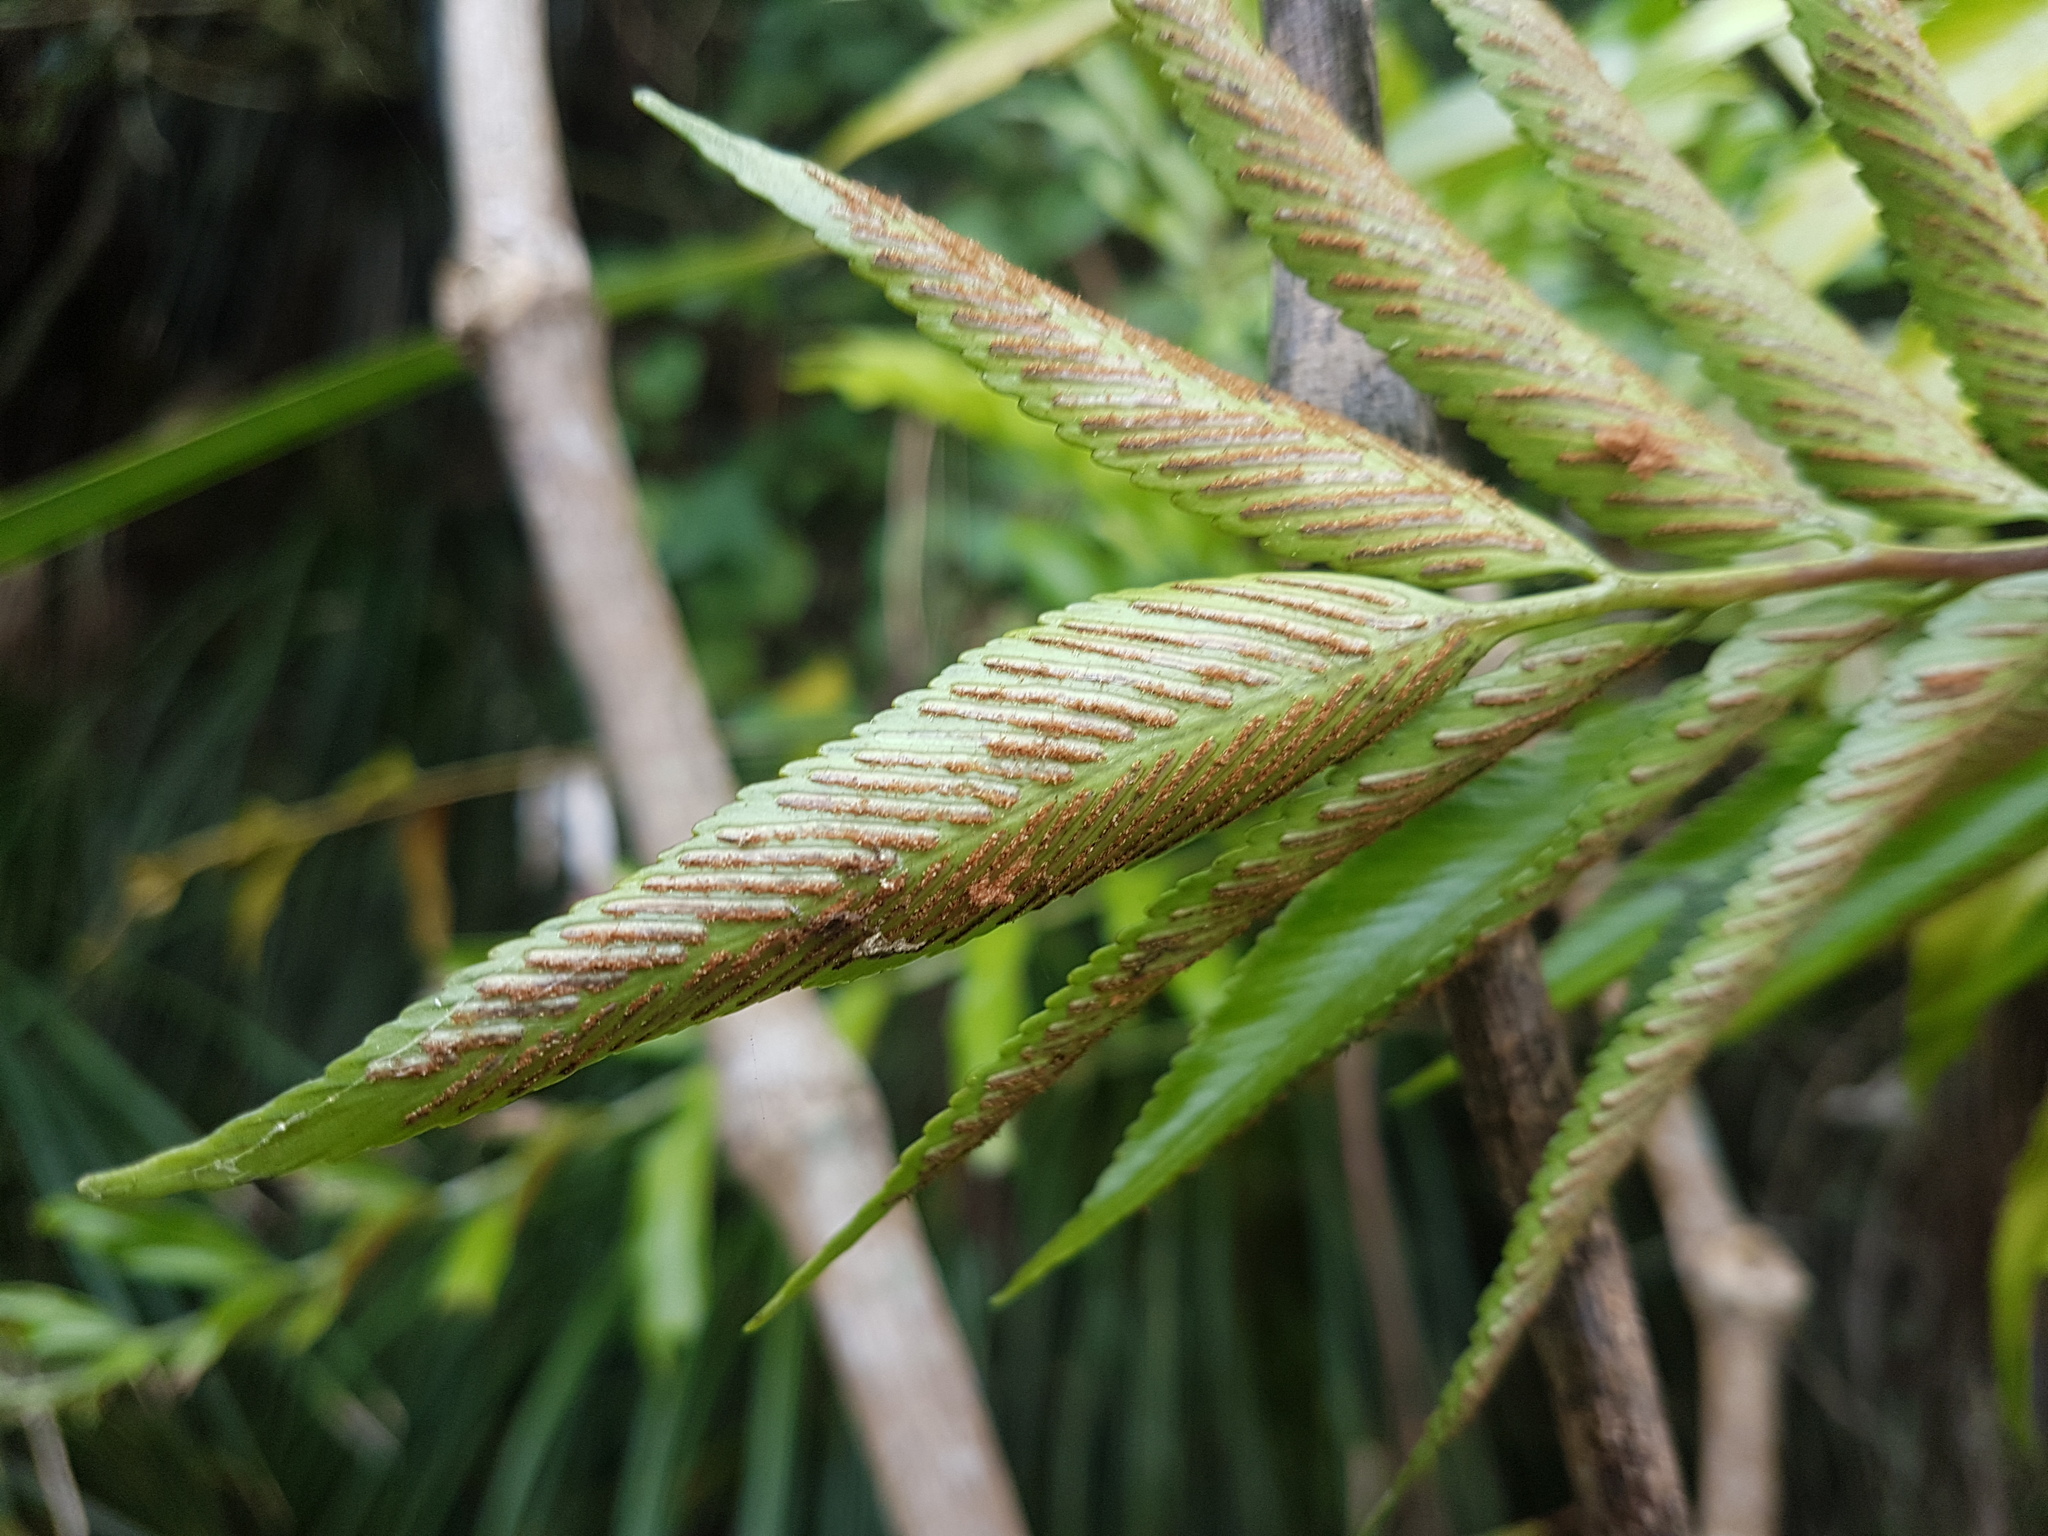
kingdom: Plantae
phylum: Tracheophyta
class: Polypodiopsida
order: Polypodiales
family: Aspleniaceae
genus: Asplenium
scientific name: Asplenium oblongifolium
